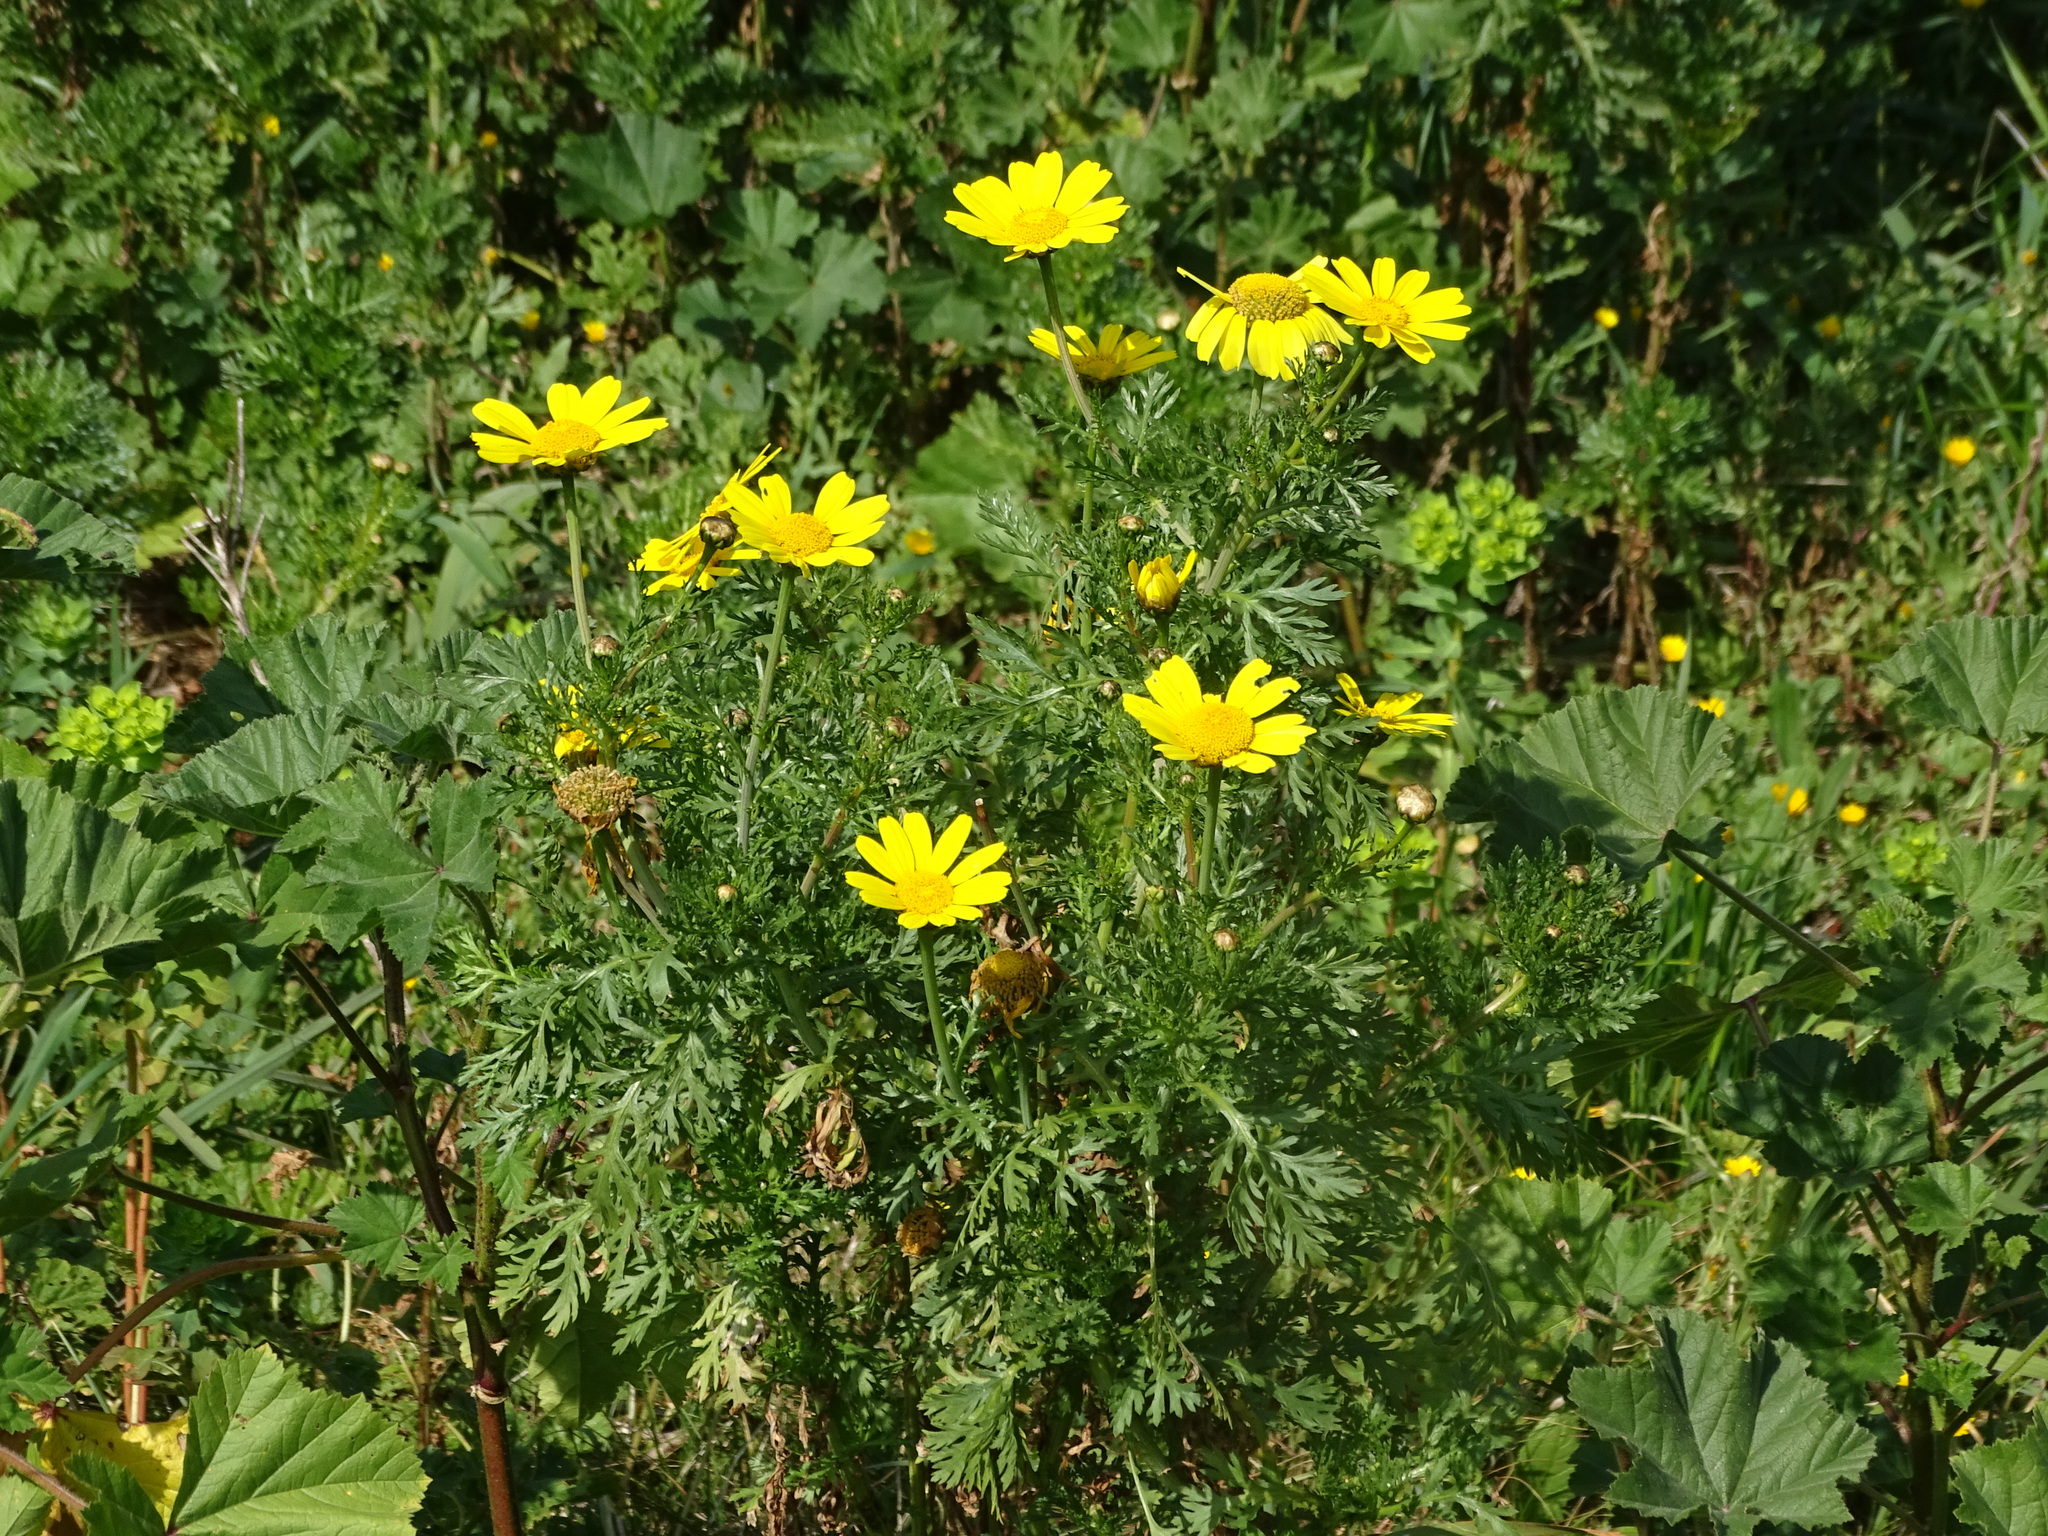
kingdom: Plantae
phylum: Tracheophyta
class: Magnoliopsida
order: Asterales
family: Asteraceae
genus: Glebionis
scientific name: Glebionis coronaria
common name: Crowndaisy
